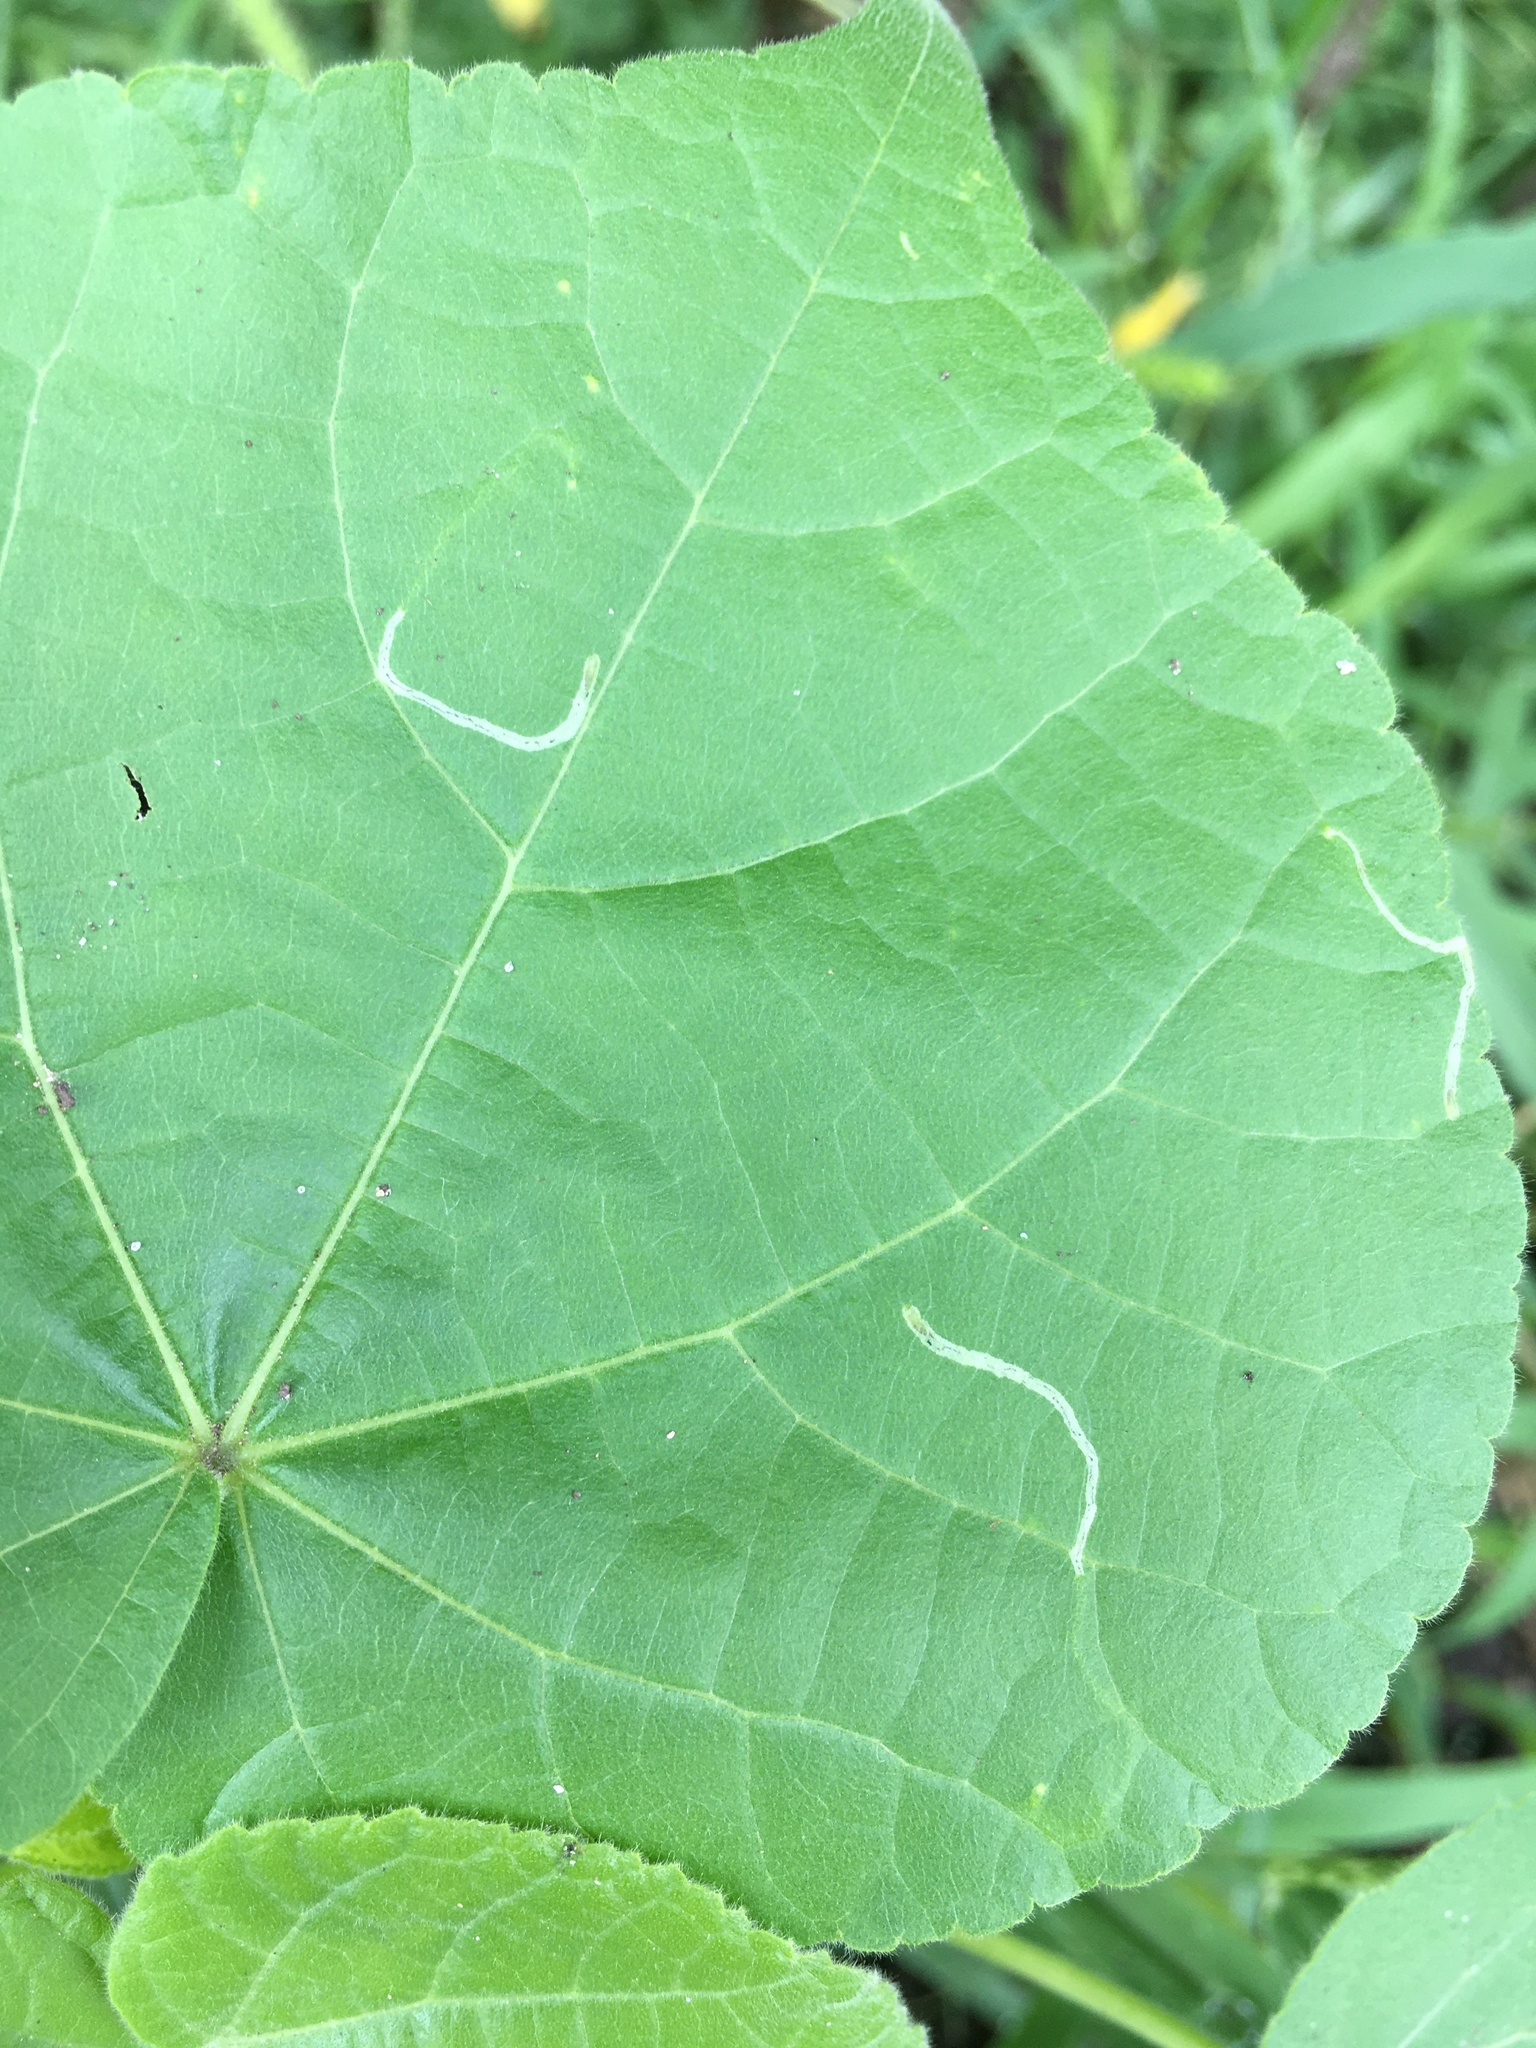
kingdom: Animalia
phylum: Arthropoda
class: Insecta
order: Diptera
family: Agromyzidae
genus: Calycomyza
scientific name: Calycomyza malvae
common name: Mallow leaf miner
